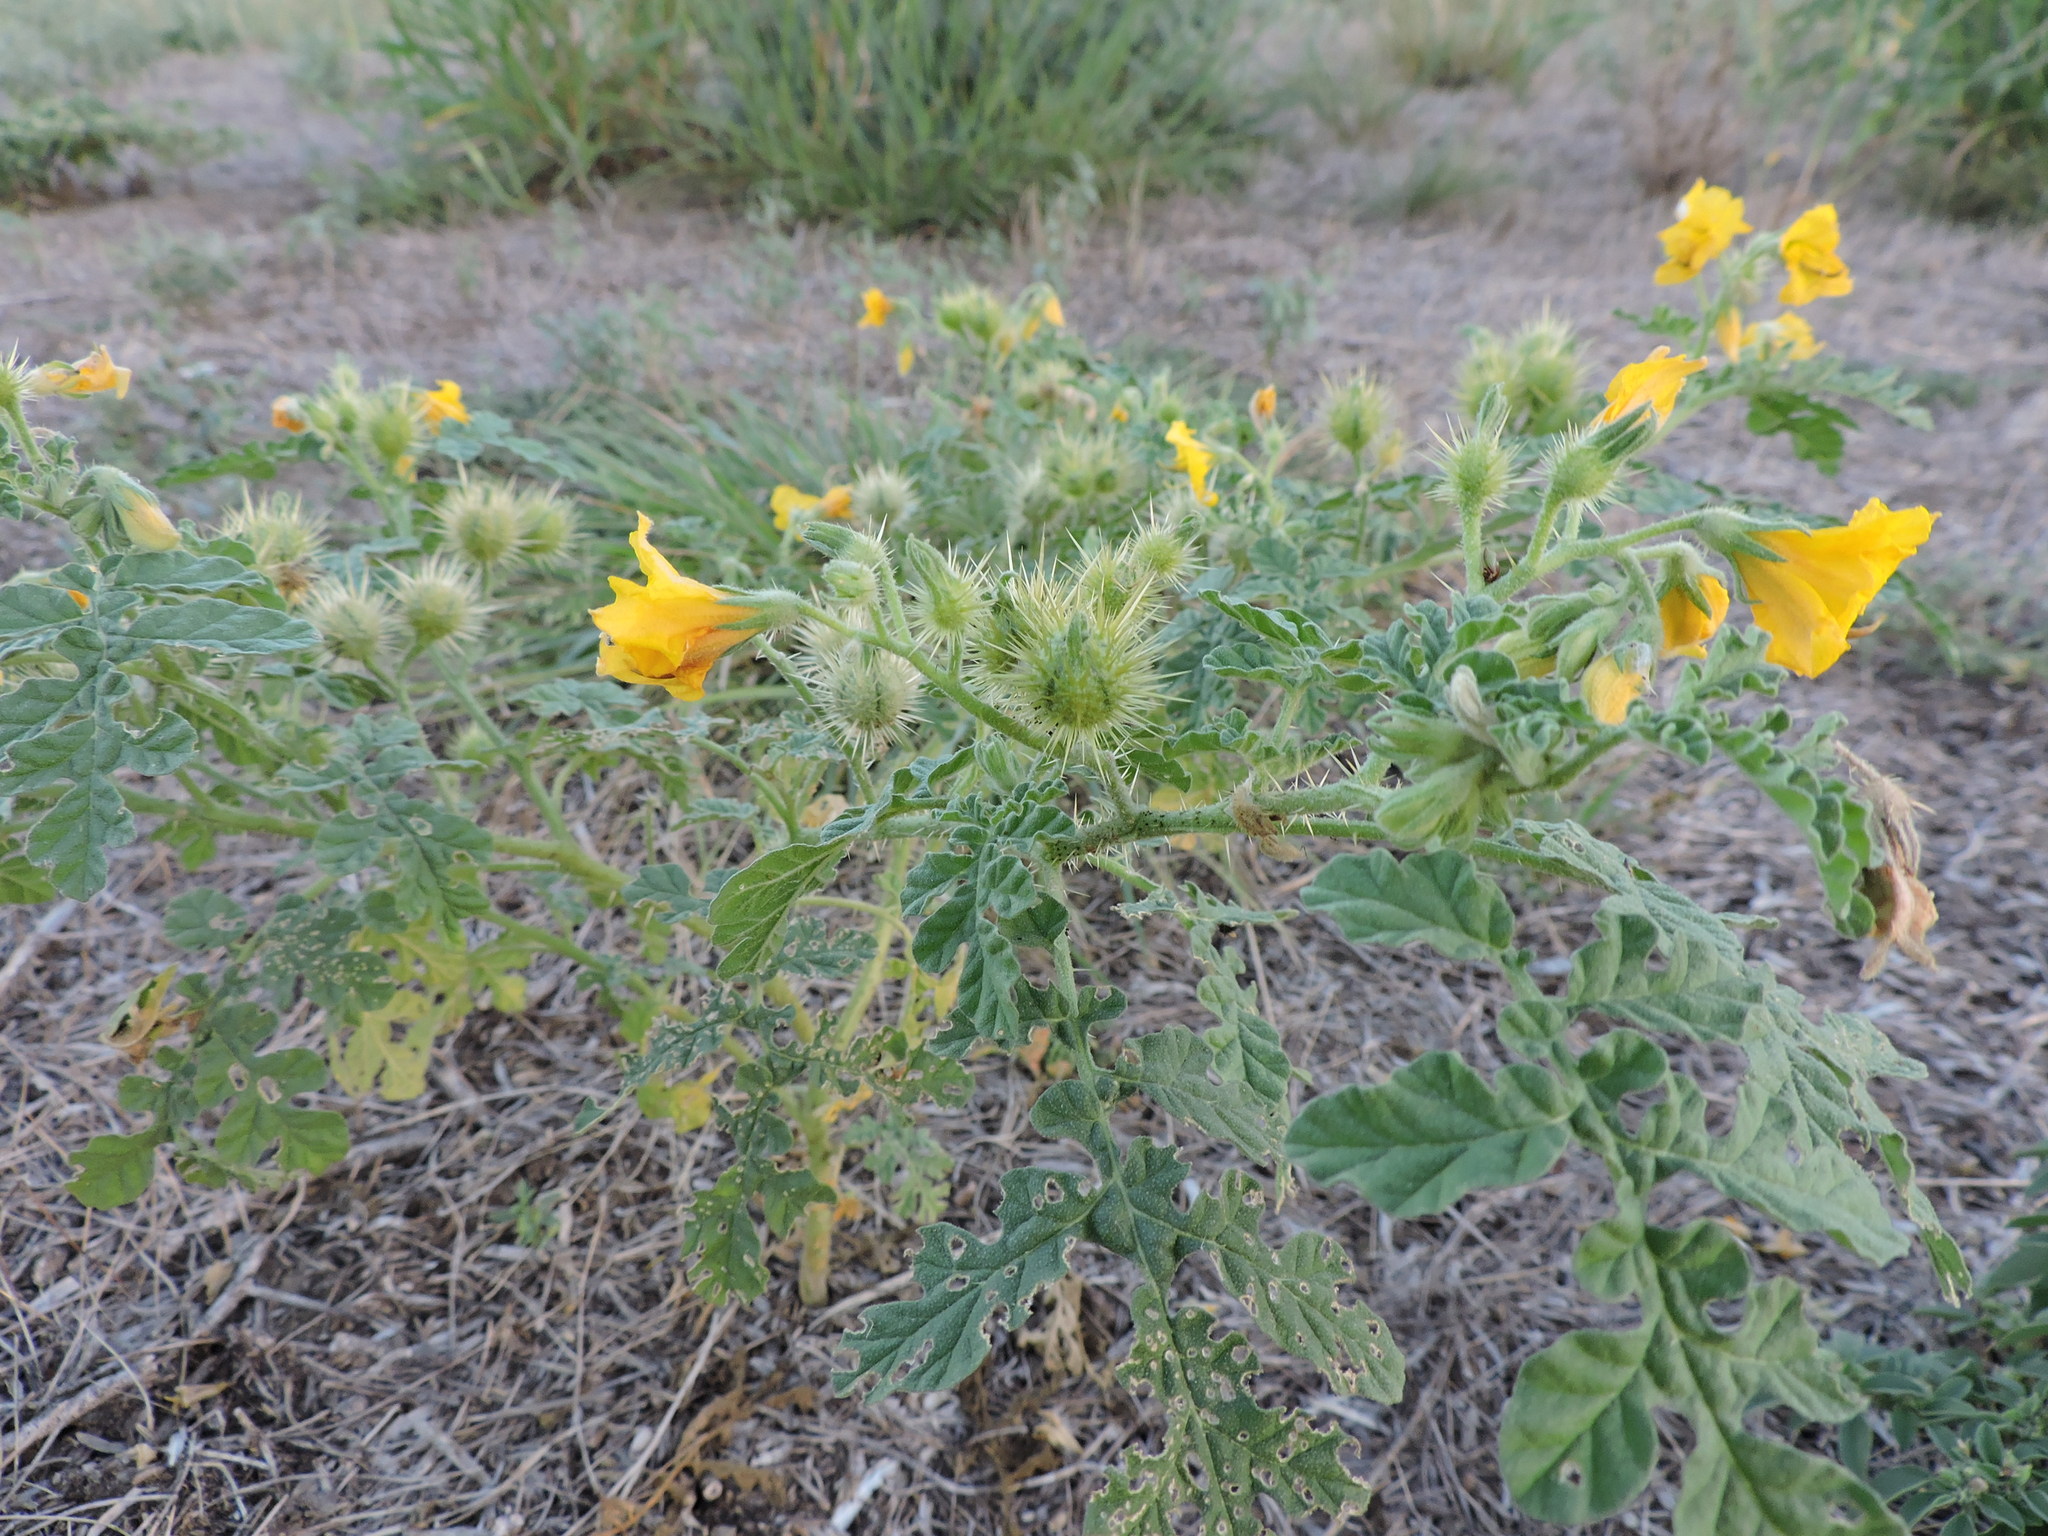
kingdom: Plantae
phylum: Tracheophyta
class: Magnoliopsida
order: Solanales
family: Solanaceae
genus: Solanum
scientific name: Solanum angustifolium
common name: Buffalobur nightshade
